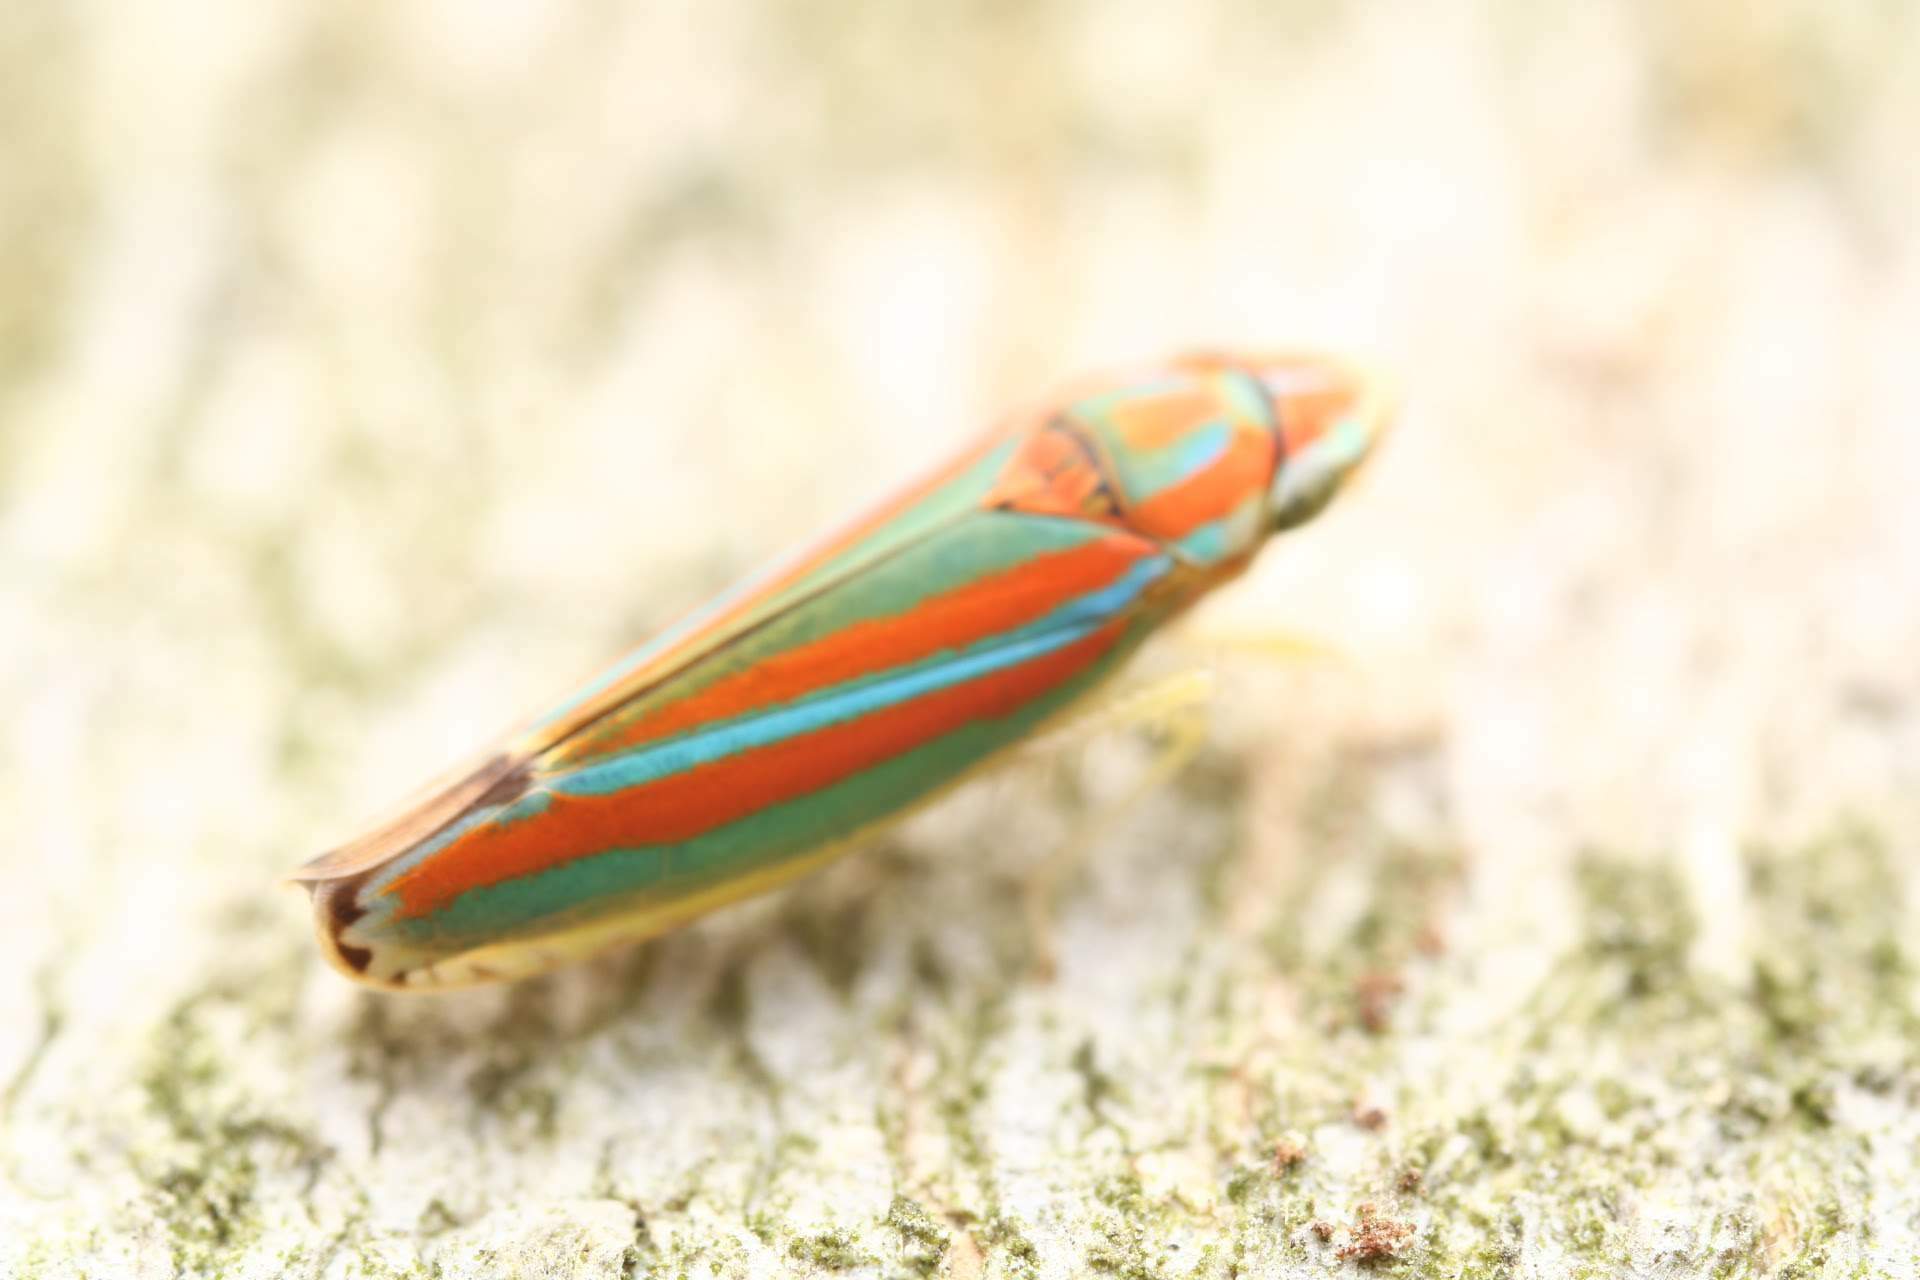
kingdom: Animalia
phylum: Arthropoda
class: Insecta
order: Hemiptera
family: Cicadellidae
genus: Graphocephala
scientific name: Graphocephala versuta
